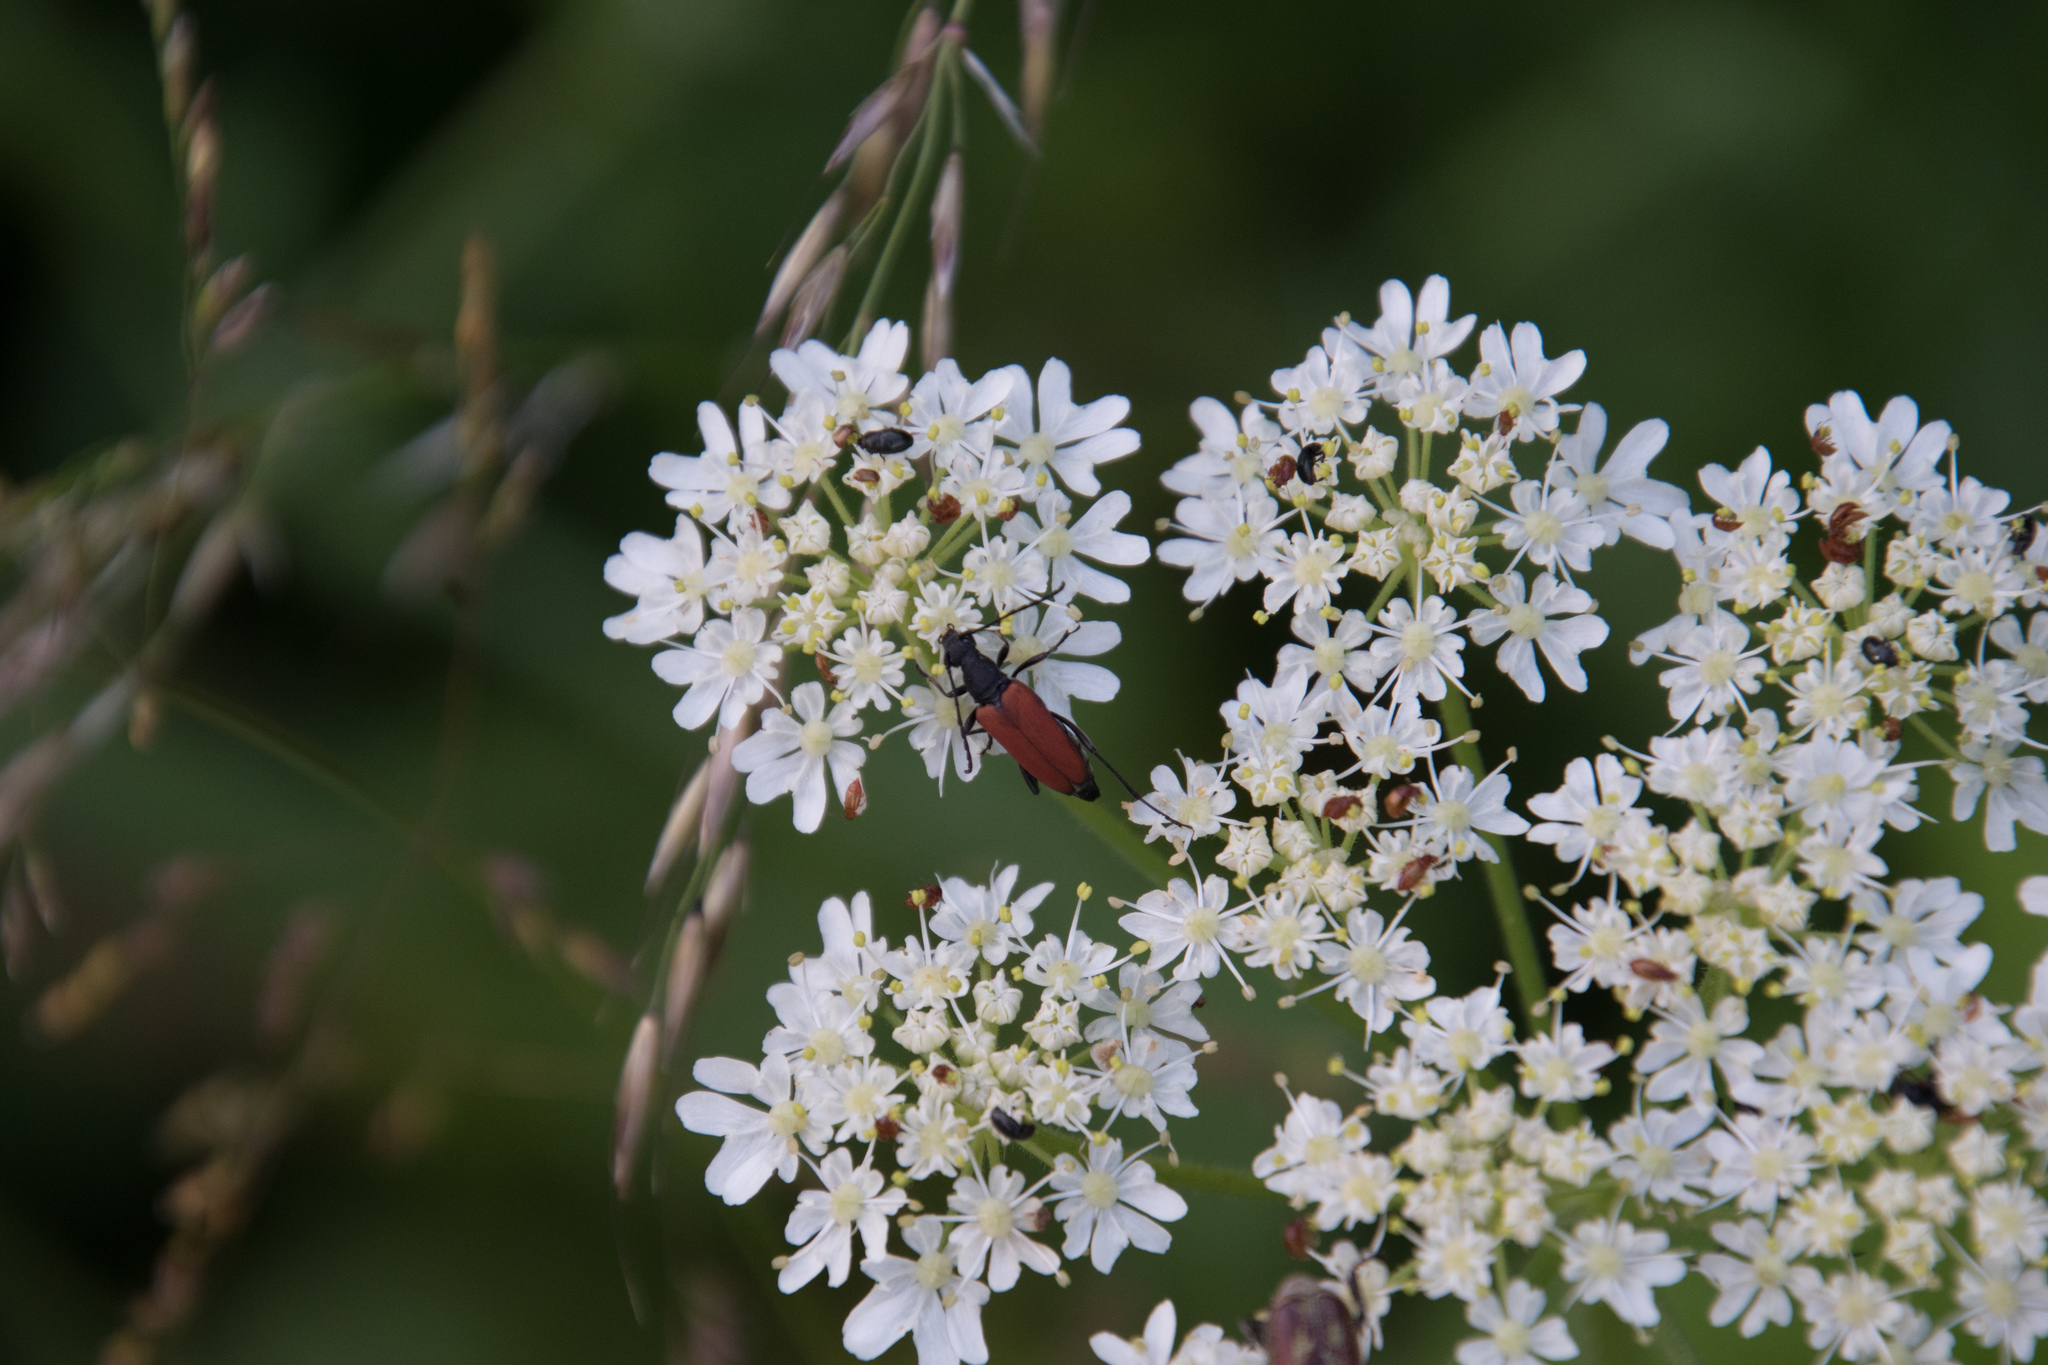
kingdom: Animalia
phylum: Arthropoda
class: Insecta
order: Coleoptera
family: Cerambycidae
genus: Anastrangalia
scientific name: Anastrangalia sanguinolenta
